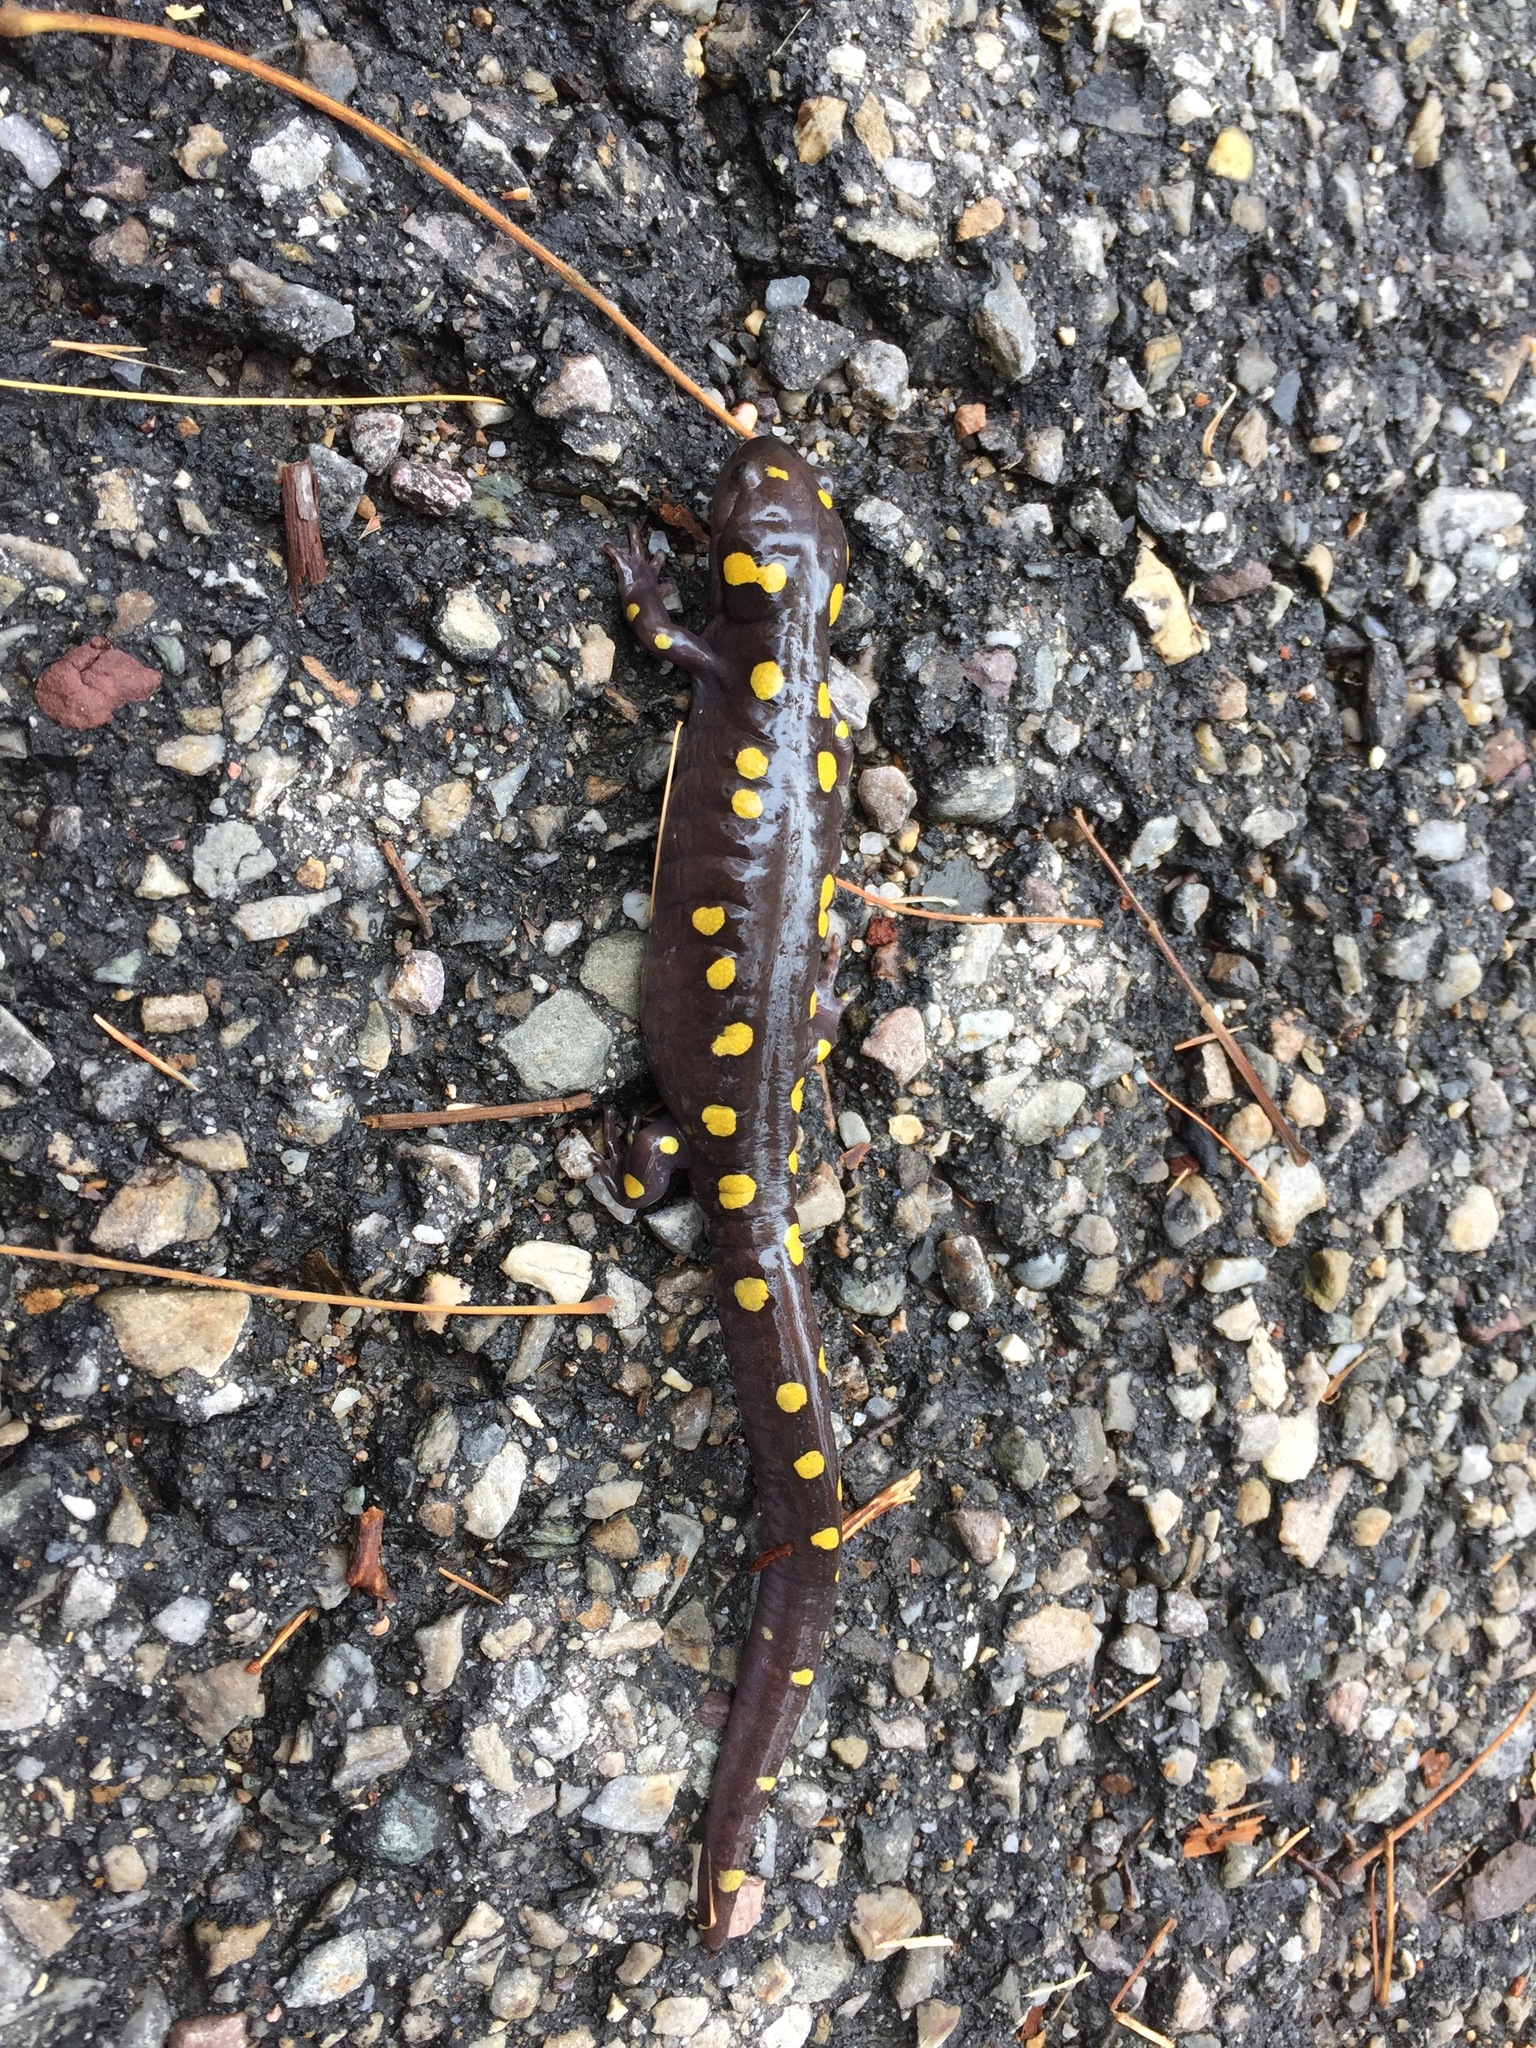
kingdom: Animalia
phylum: Chordata
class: Amphibia
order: Caudata
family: Ambystomatidae
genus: Ambystoma
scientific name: Ambystoma maculatum
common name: Spotted salamander
